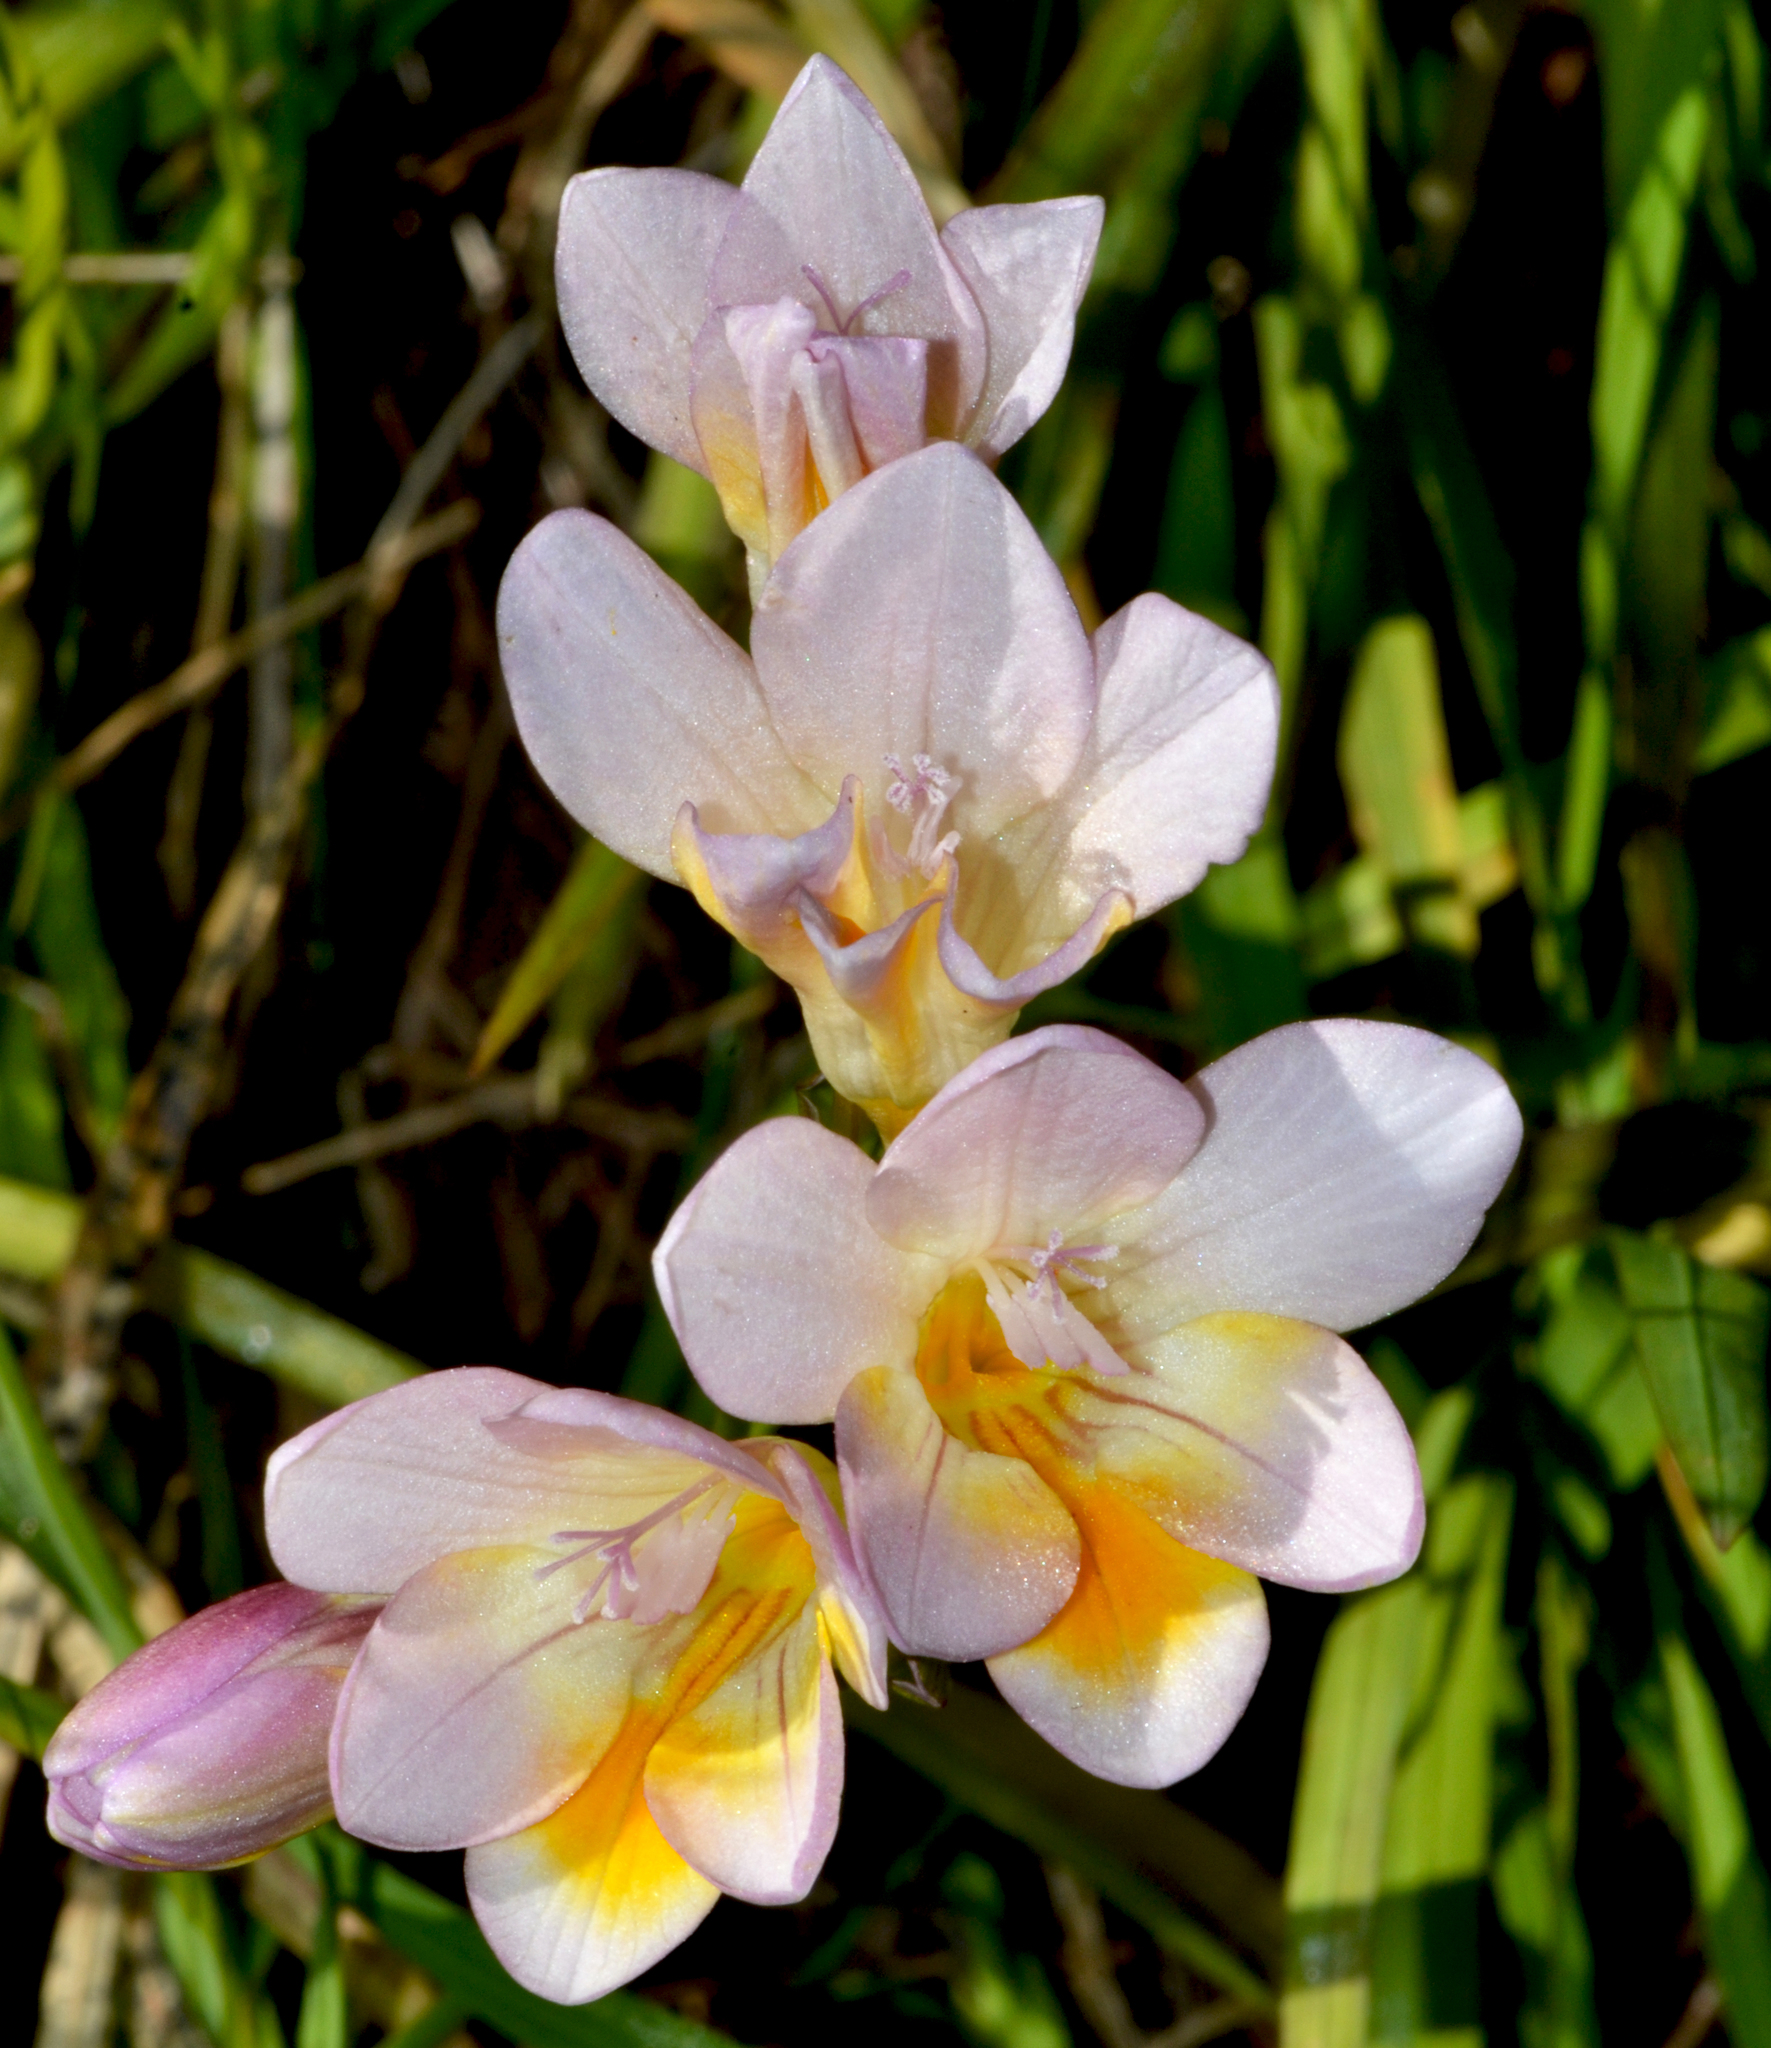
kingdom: Plantae
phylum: Tracheophyta
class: Liliopsida
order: Asparagales
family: Iridaceae
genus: Freesia
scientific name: Freesia leichtlinii
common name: Freesia
